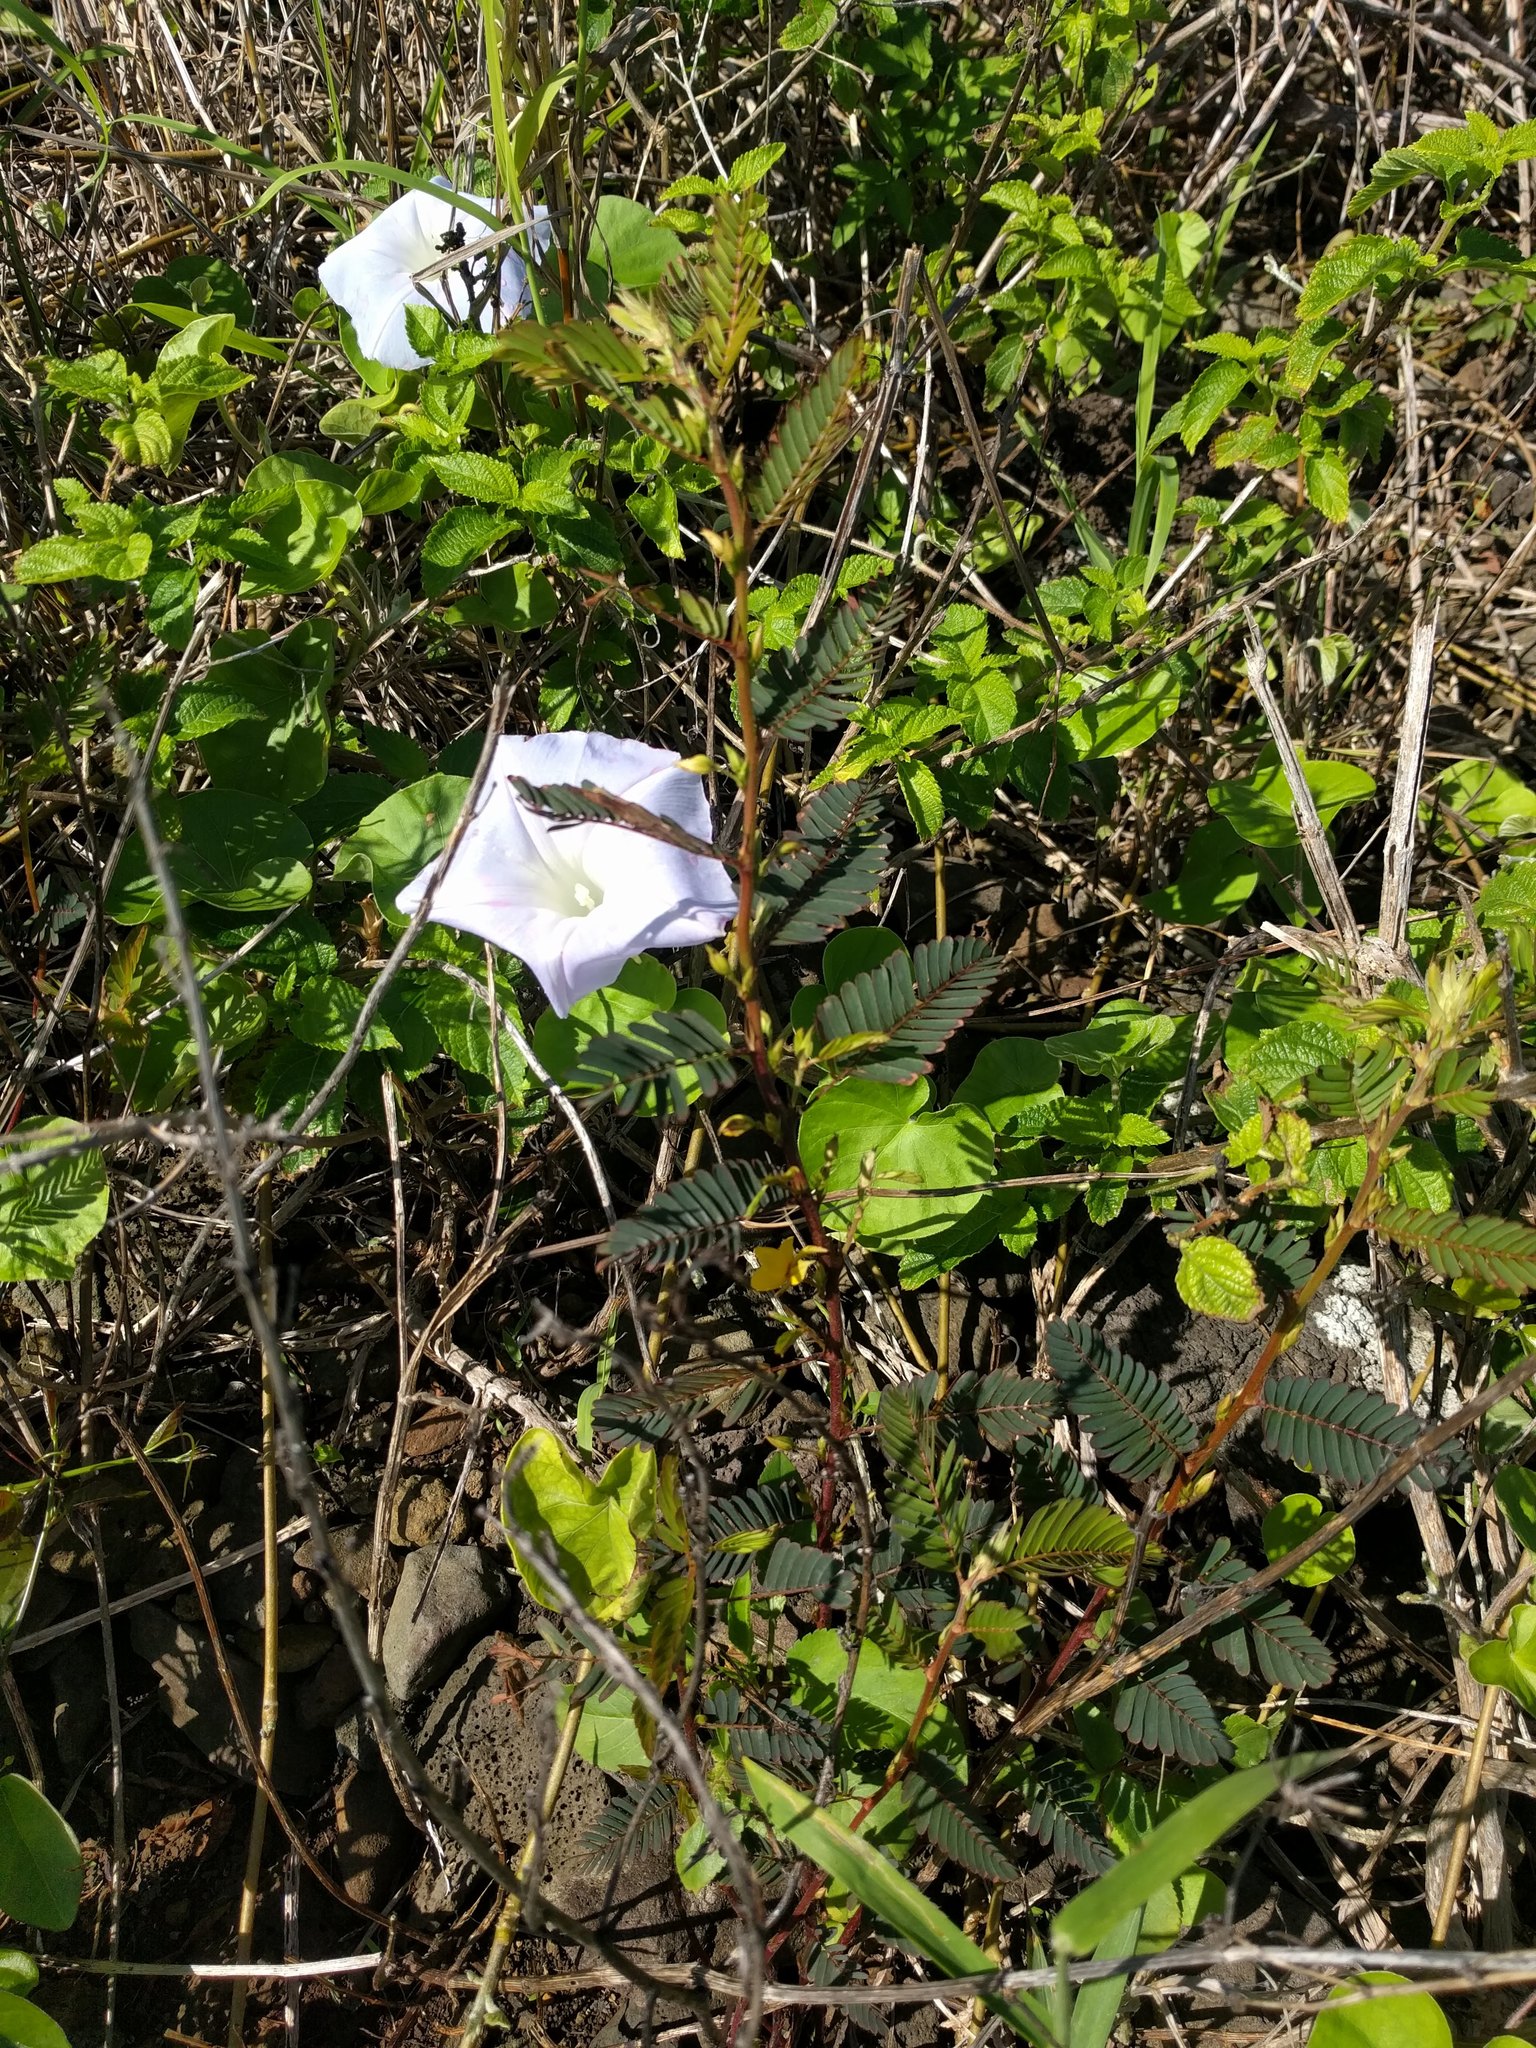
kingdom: Plantae
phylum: Tracheophyta
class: Magnoliopsida
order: Fabales
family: Fabaceae
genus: Chamaecrista
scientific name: Chamaecrista nictitans
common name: Sensitive cassia
